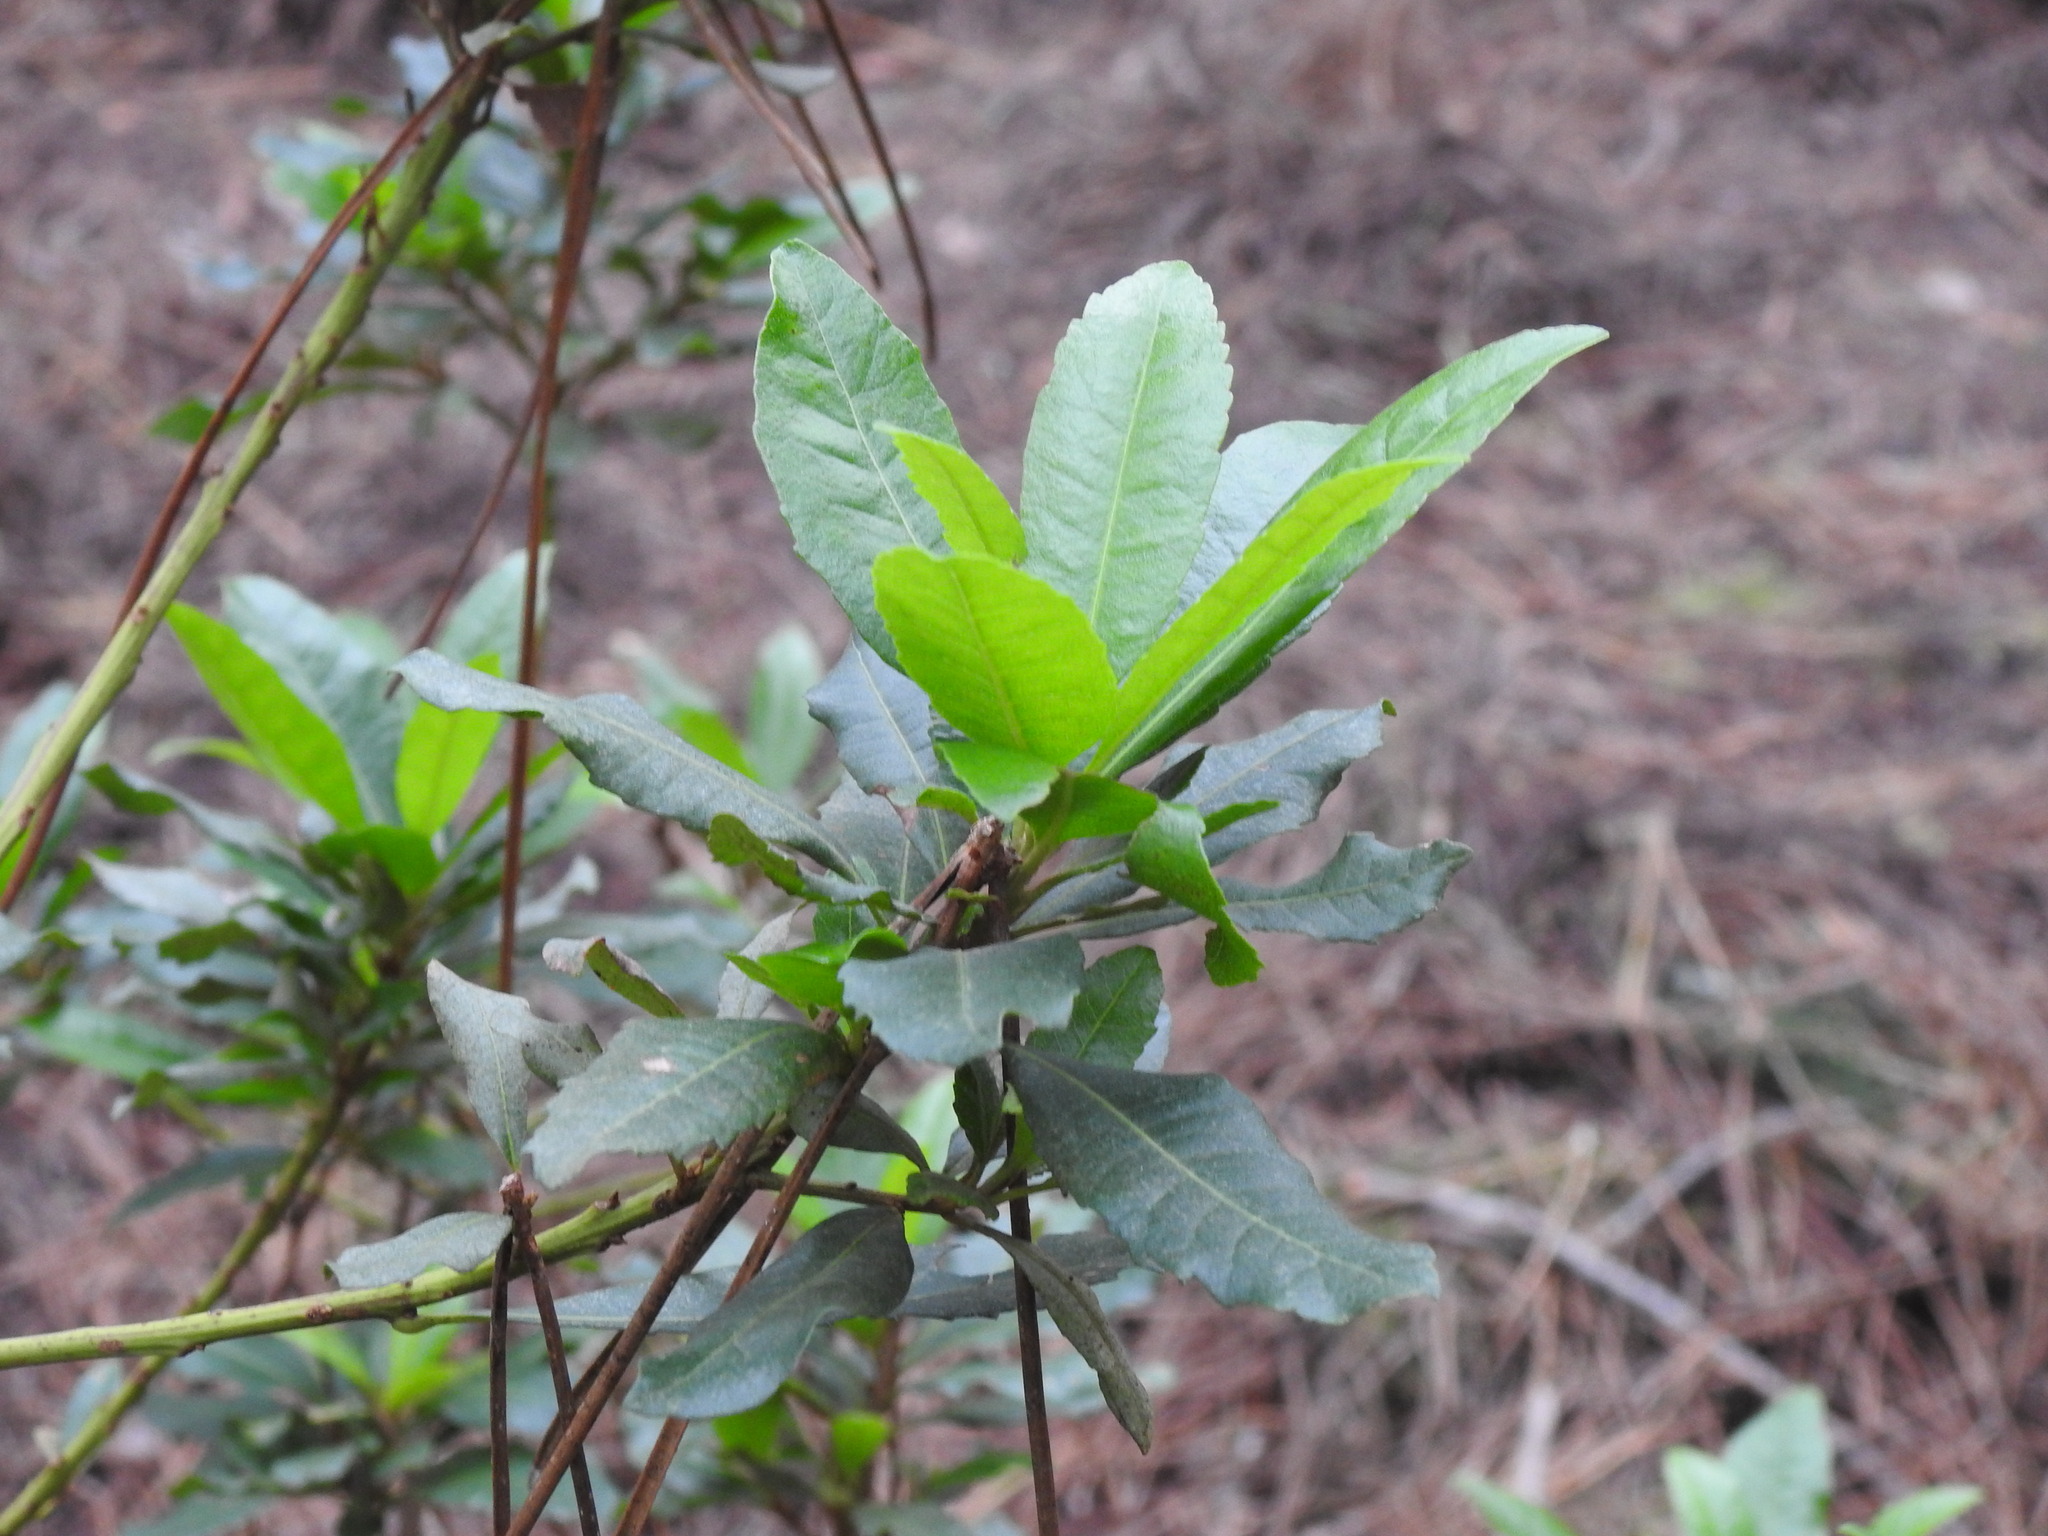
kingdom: Plantae
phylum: Tracheophyta
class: Magnoliopsida
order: Fagales
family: Myricaceae
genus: Morella
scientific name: Morella faya
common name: Firetree
